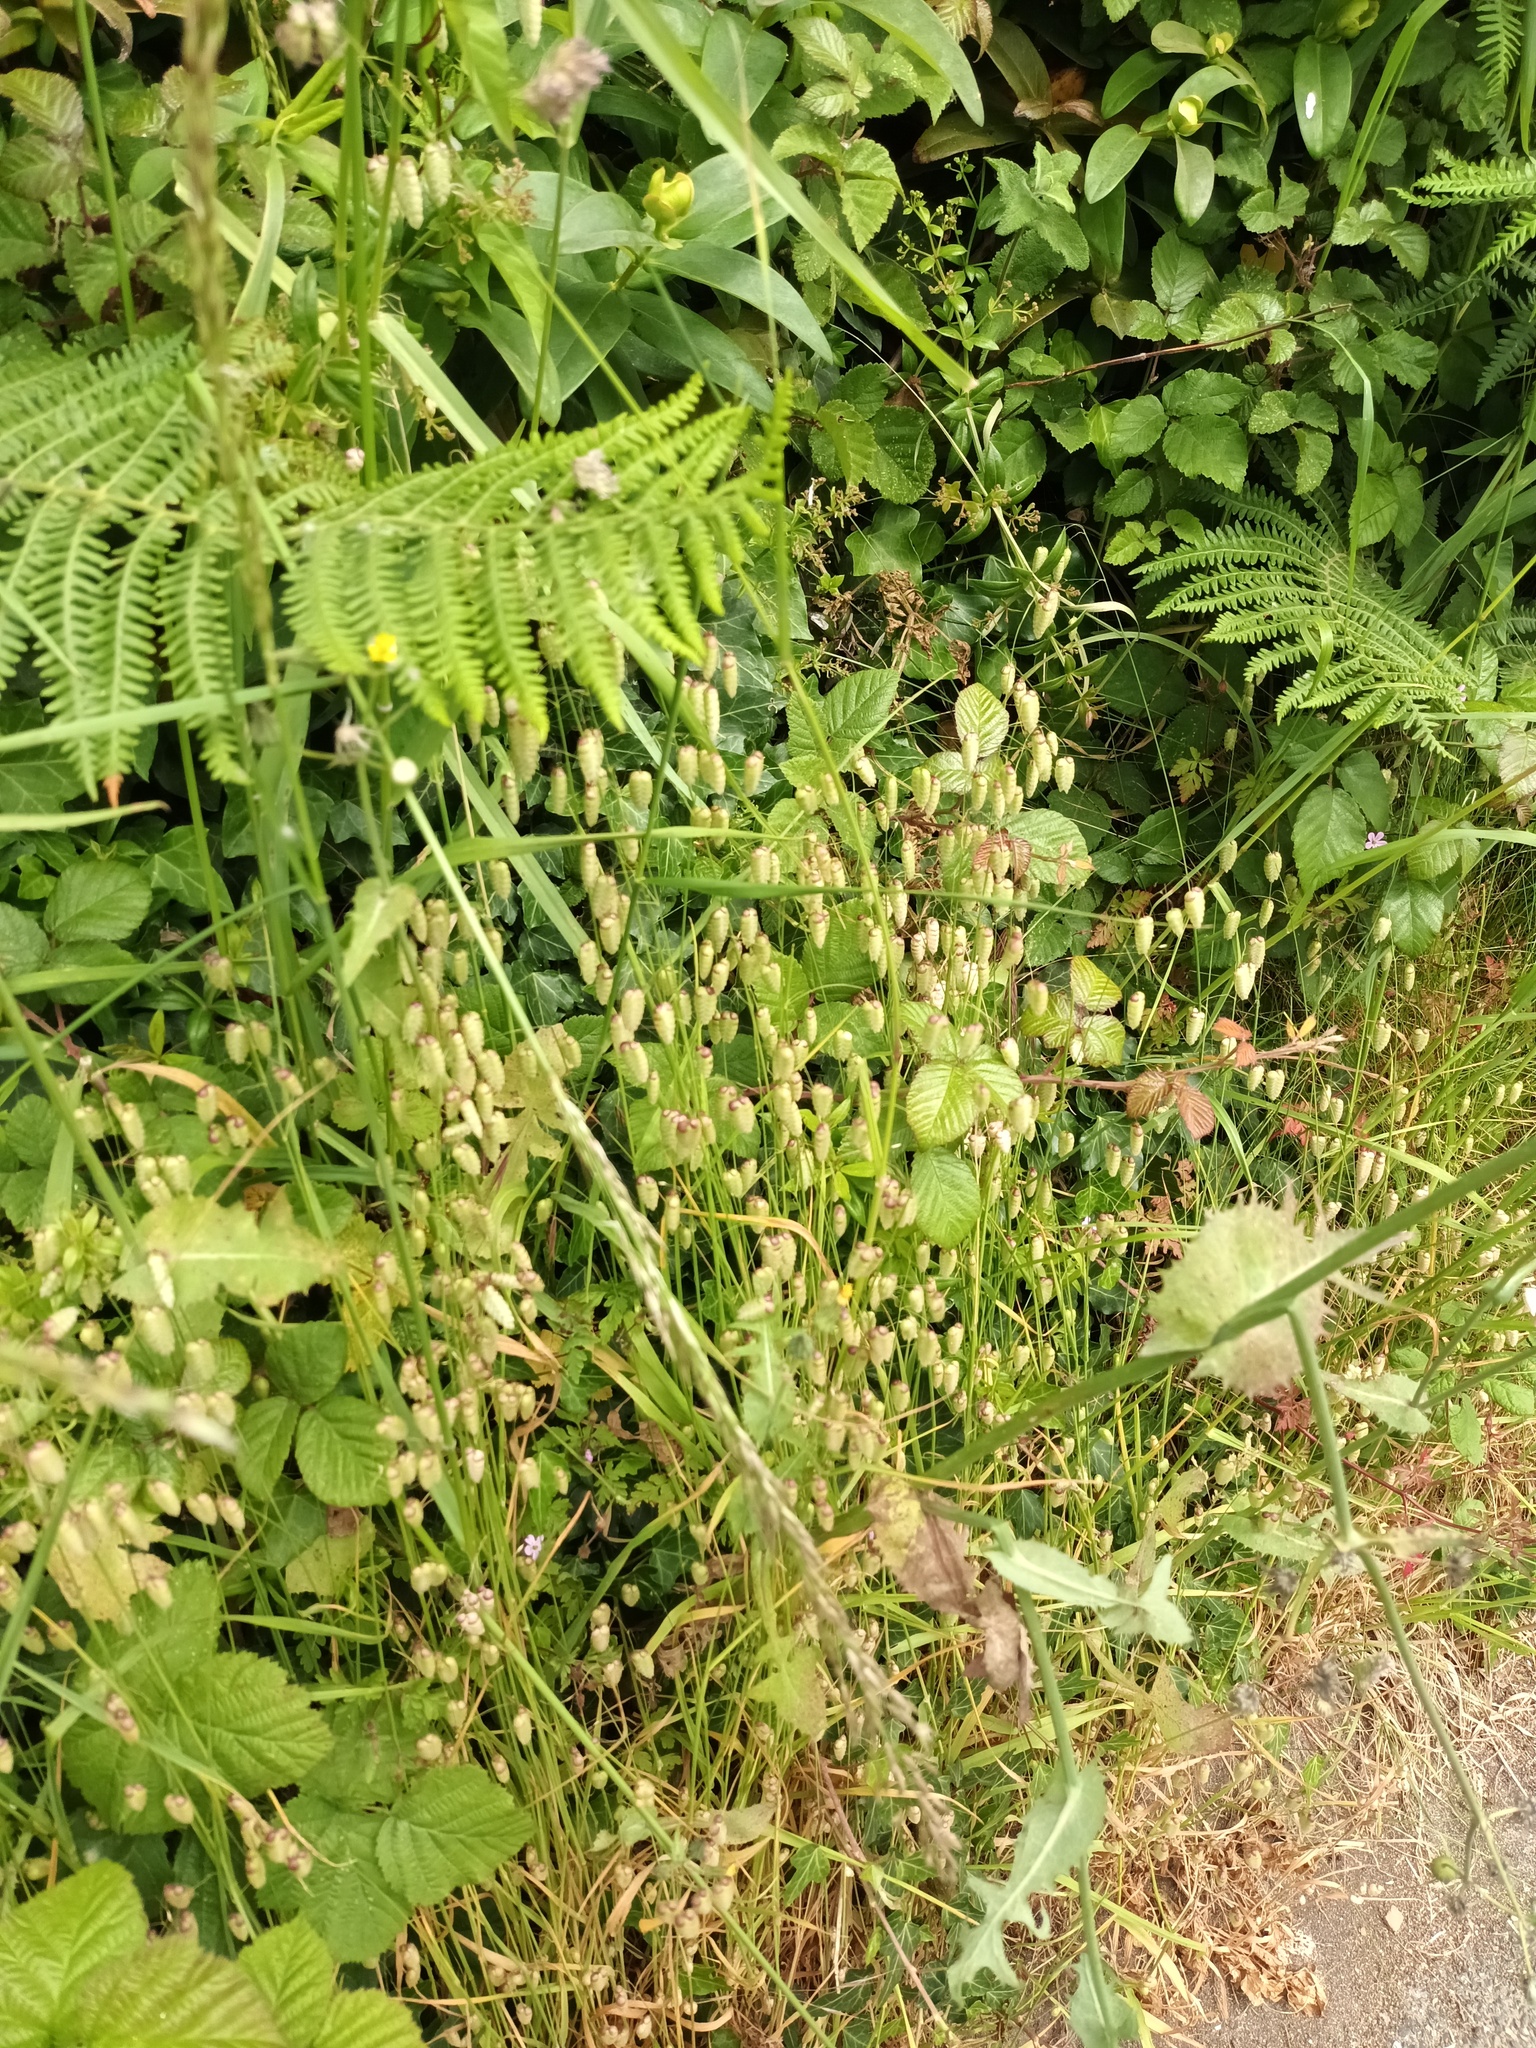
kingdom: Plantae
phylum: Tracheophyta
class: Liliopsida
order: Poales
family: Poaceae
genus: Briza
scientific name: Briza maxima
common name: Big quakinggrass
